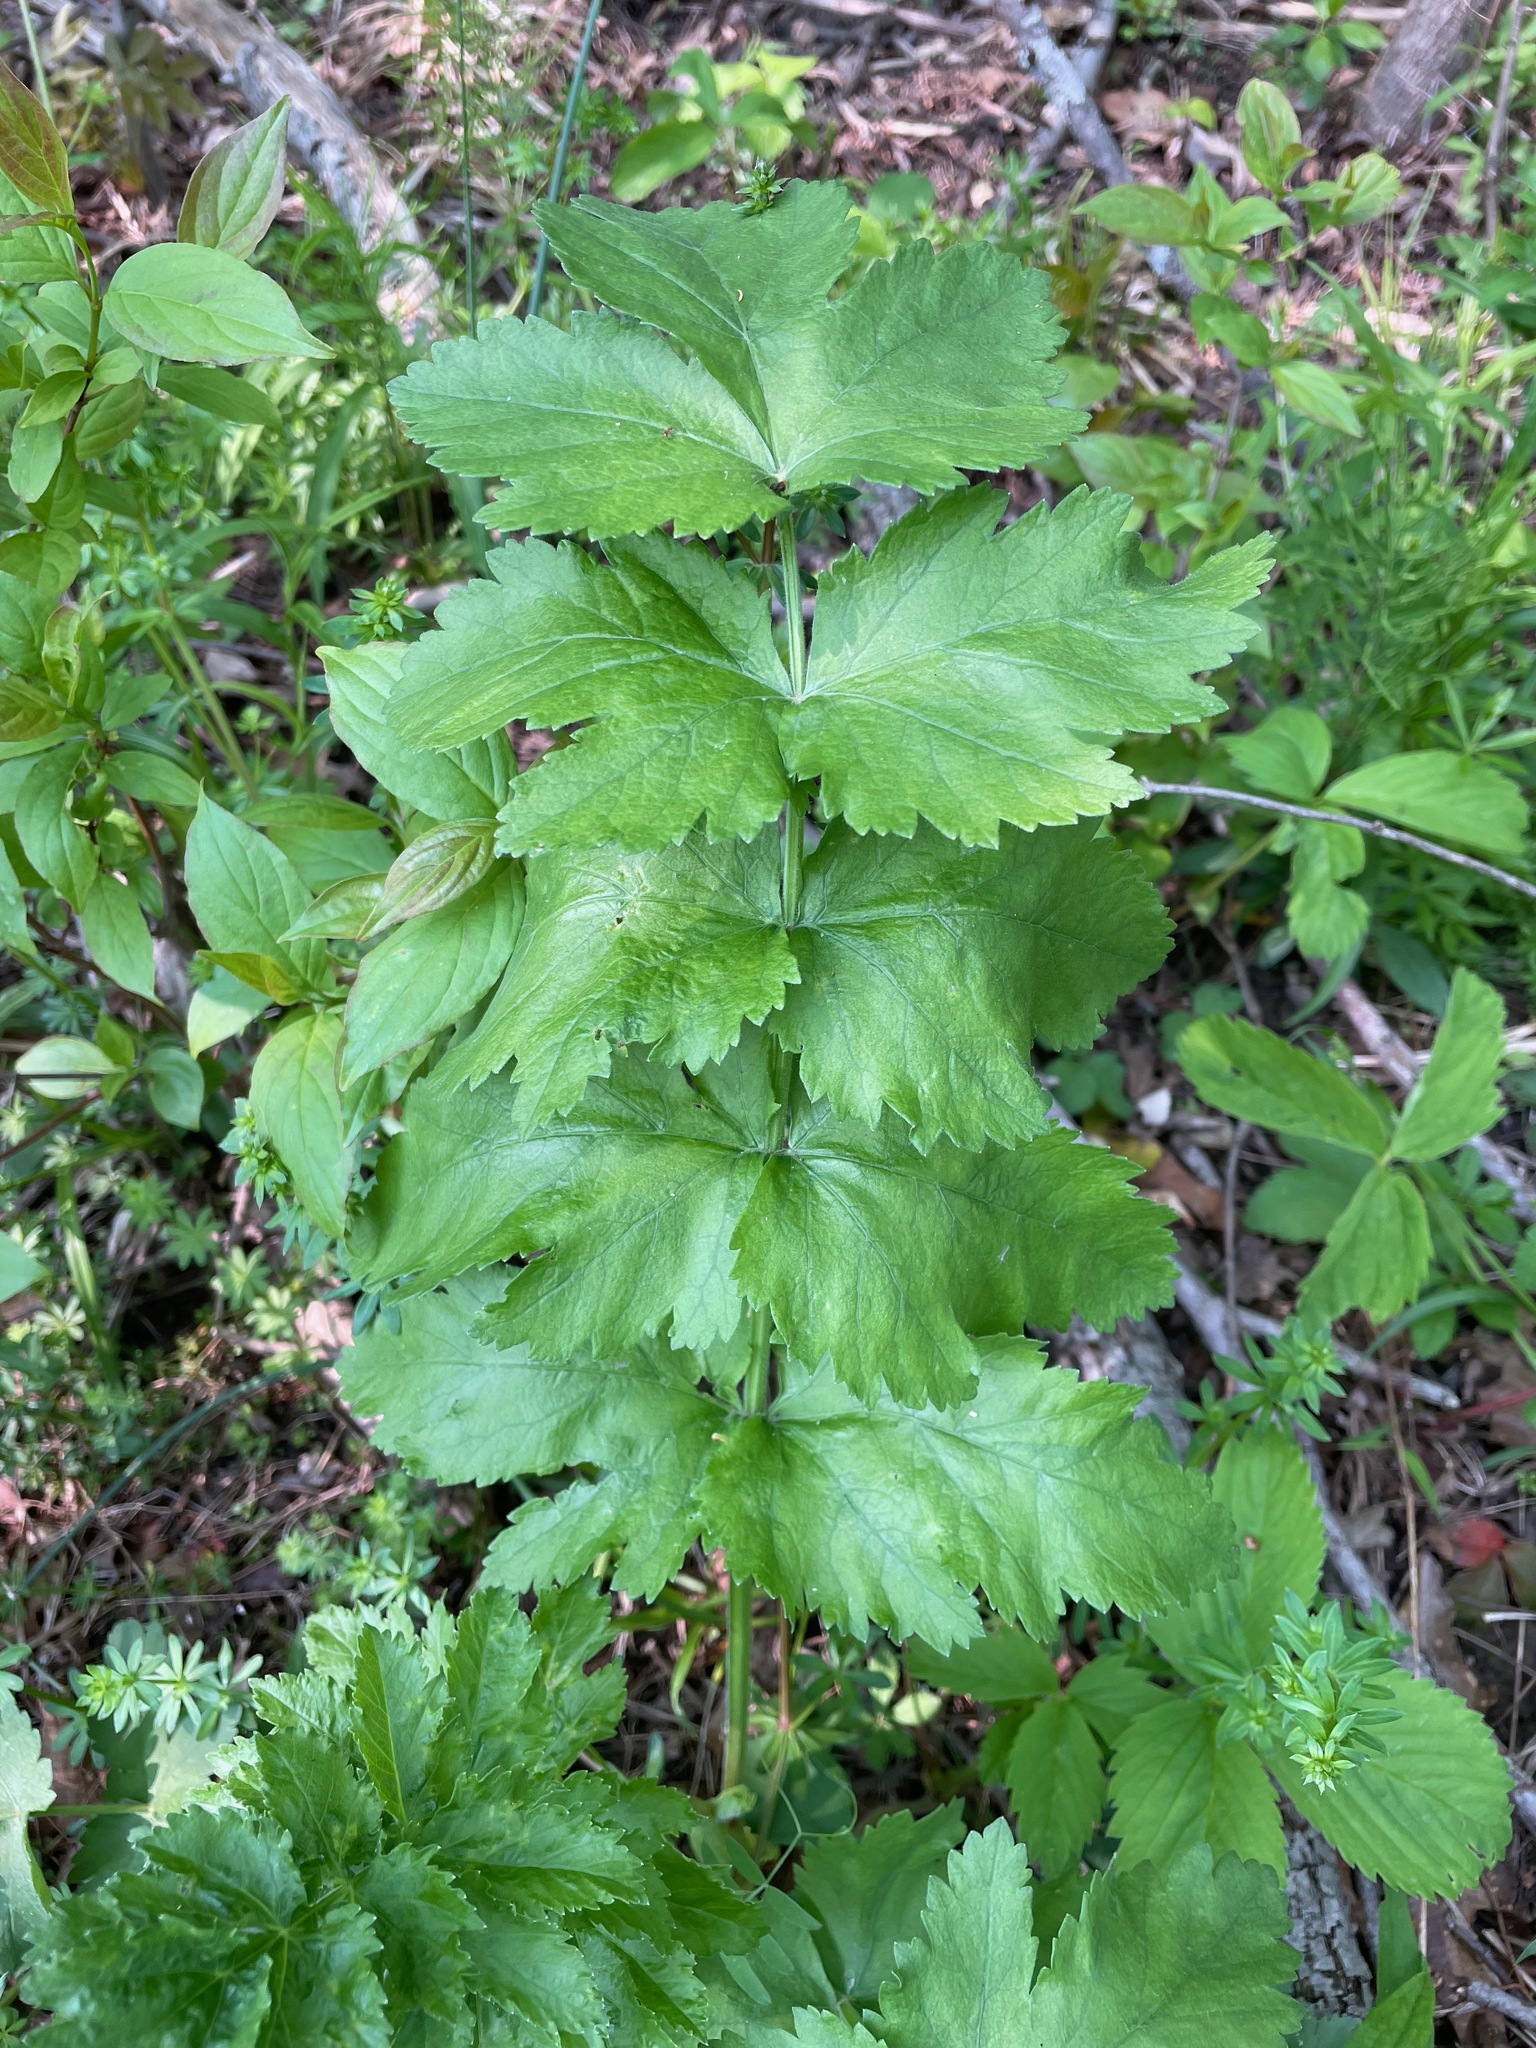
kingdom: Plantae
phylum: Tracheophyta
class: Magnoliopsida
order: Apiales
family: Apiaceae
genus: Pastinaca
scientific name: Pastinaca sativa
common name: Wild parsnip
